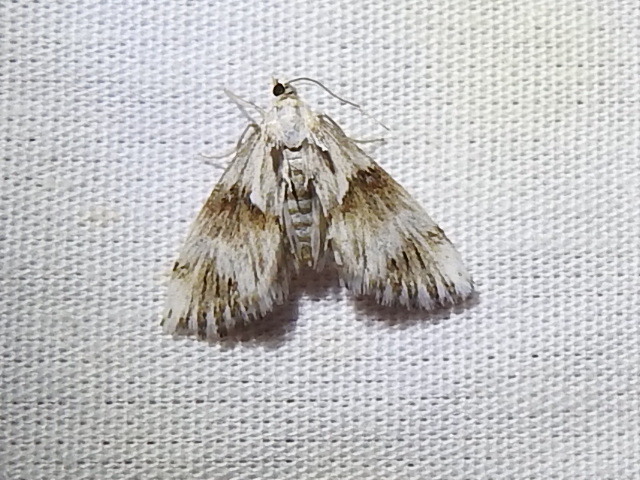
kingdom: Animalia
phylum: Arthropoda
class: Insecta
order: Lepidoptera
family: Crambidae
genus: Edia
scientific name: Edia semiluna
